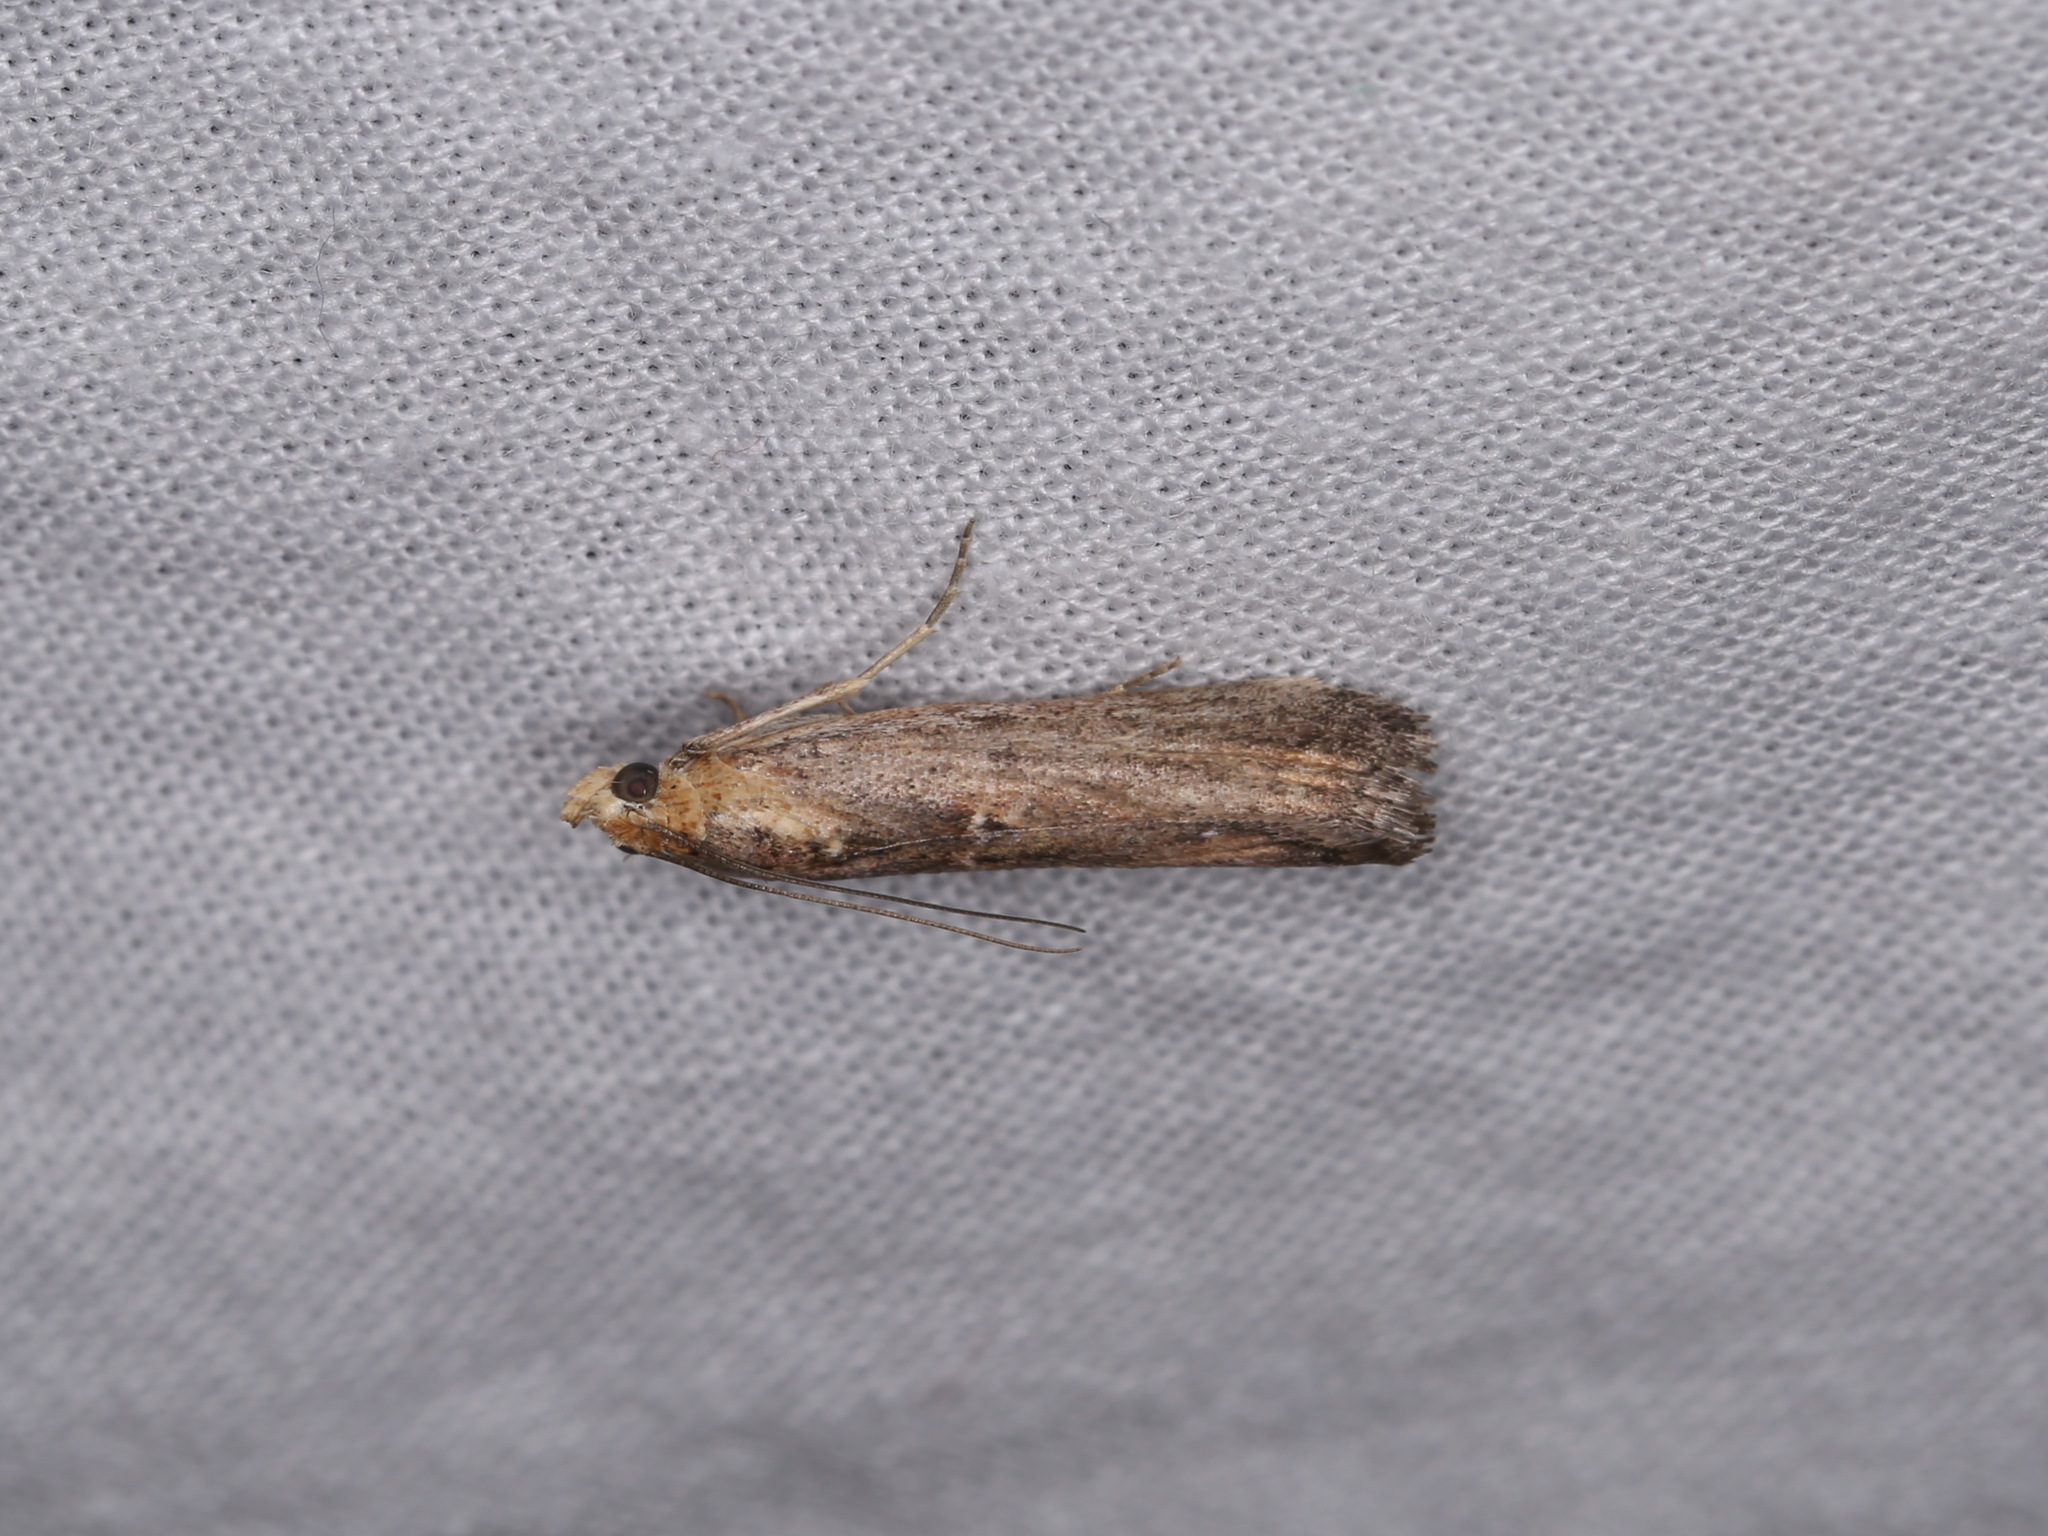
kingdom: Animalia
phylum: Arthropoda
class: Insecta
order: Lepidoptera
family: Pyralidae
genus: Morosaphycita
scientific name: Morosaphycita oculiferella
